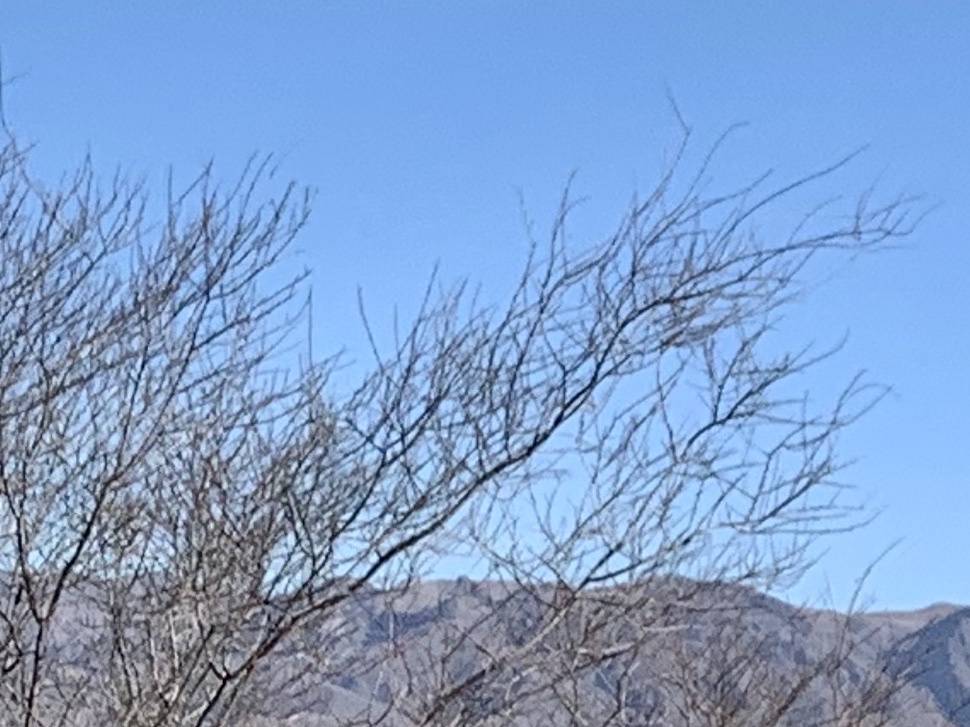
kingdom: Plantae
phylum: Tracheophyta
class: Magnoliopsida
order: Fabales
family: Fabaceae
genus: Vachellia
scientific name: Vachellia constricta
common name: Mescat acacia
